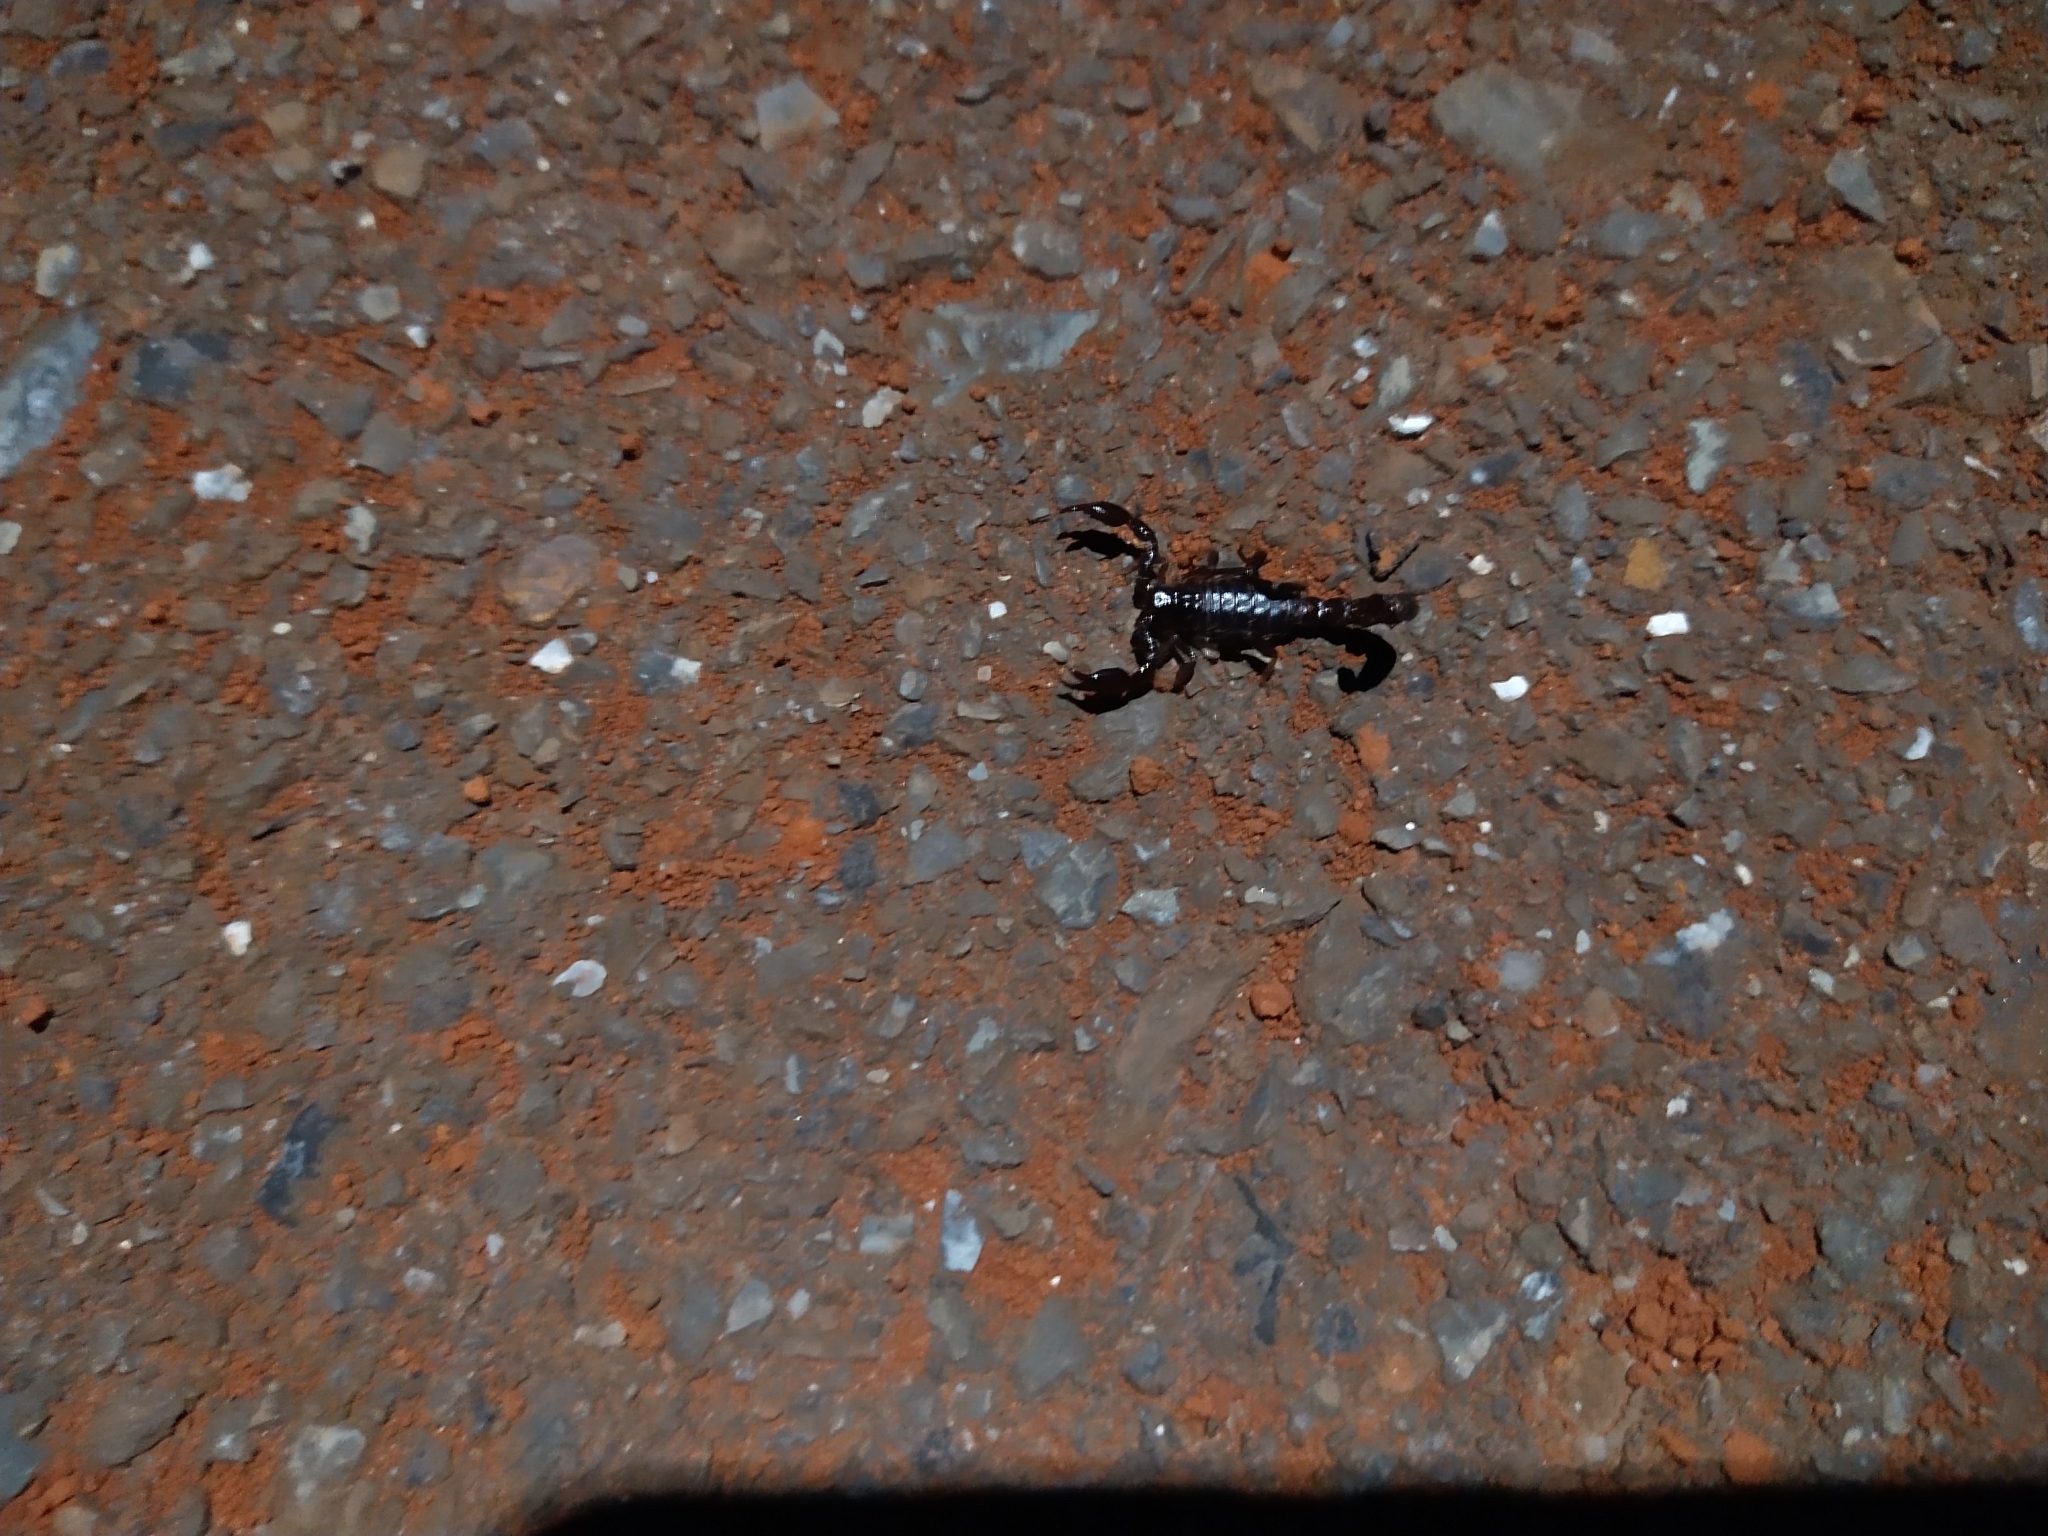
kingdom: Animalia
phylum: Arthropoda
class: Arachnida
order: Scorpiones
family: Bothriuridae
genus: Bothriurus
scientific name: Bothriurus araguayae
